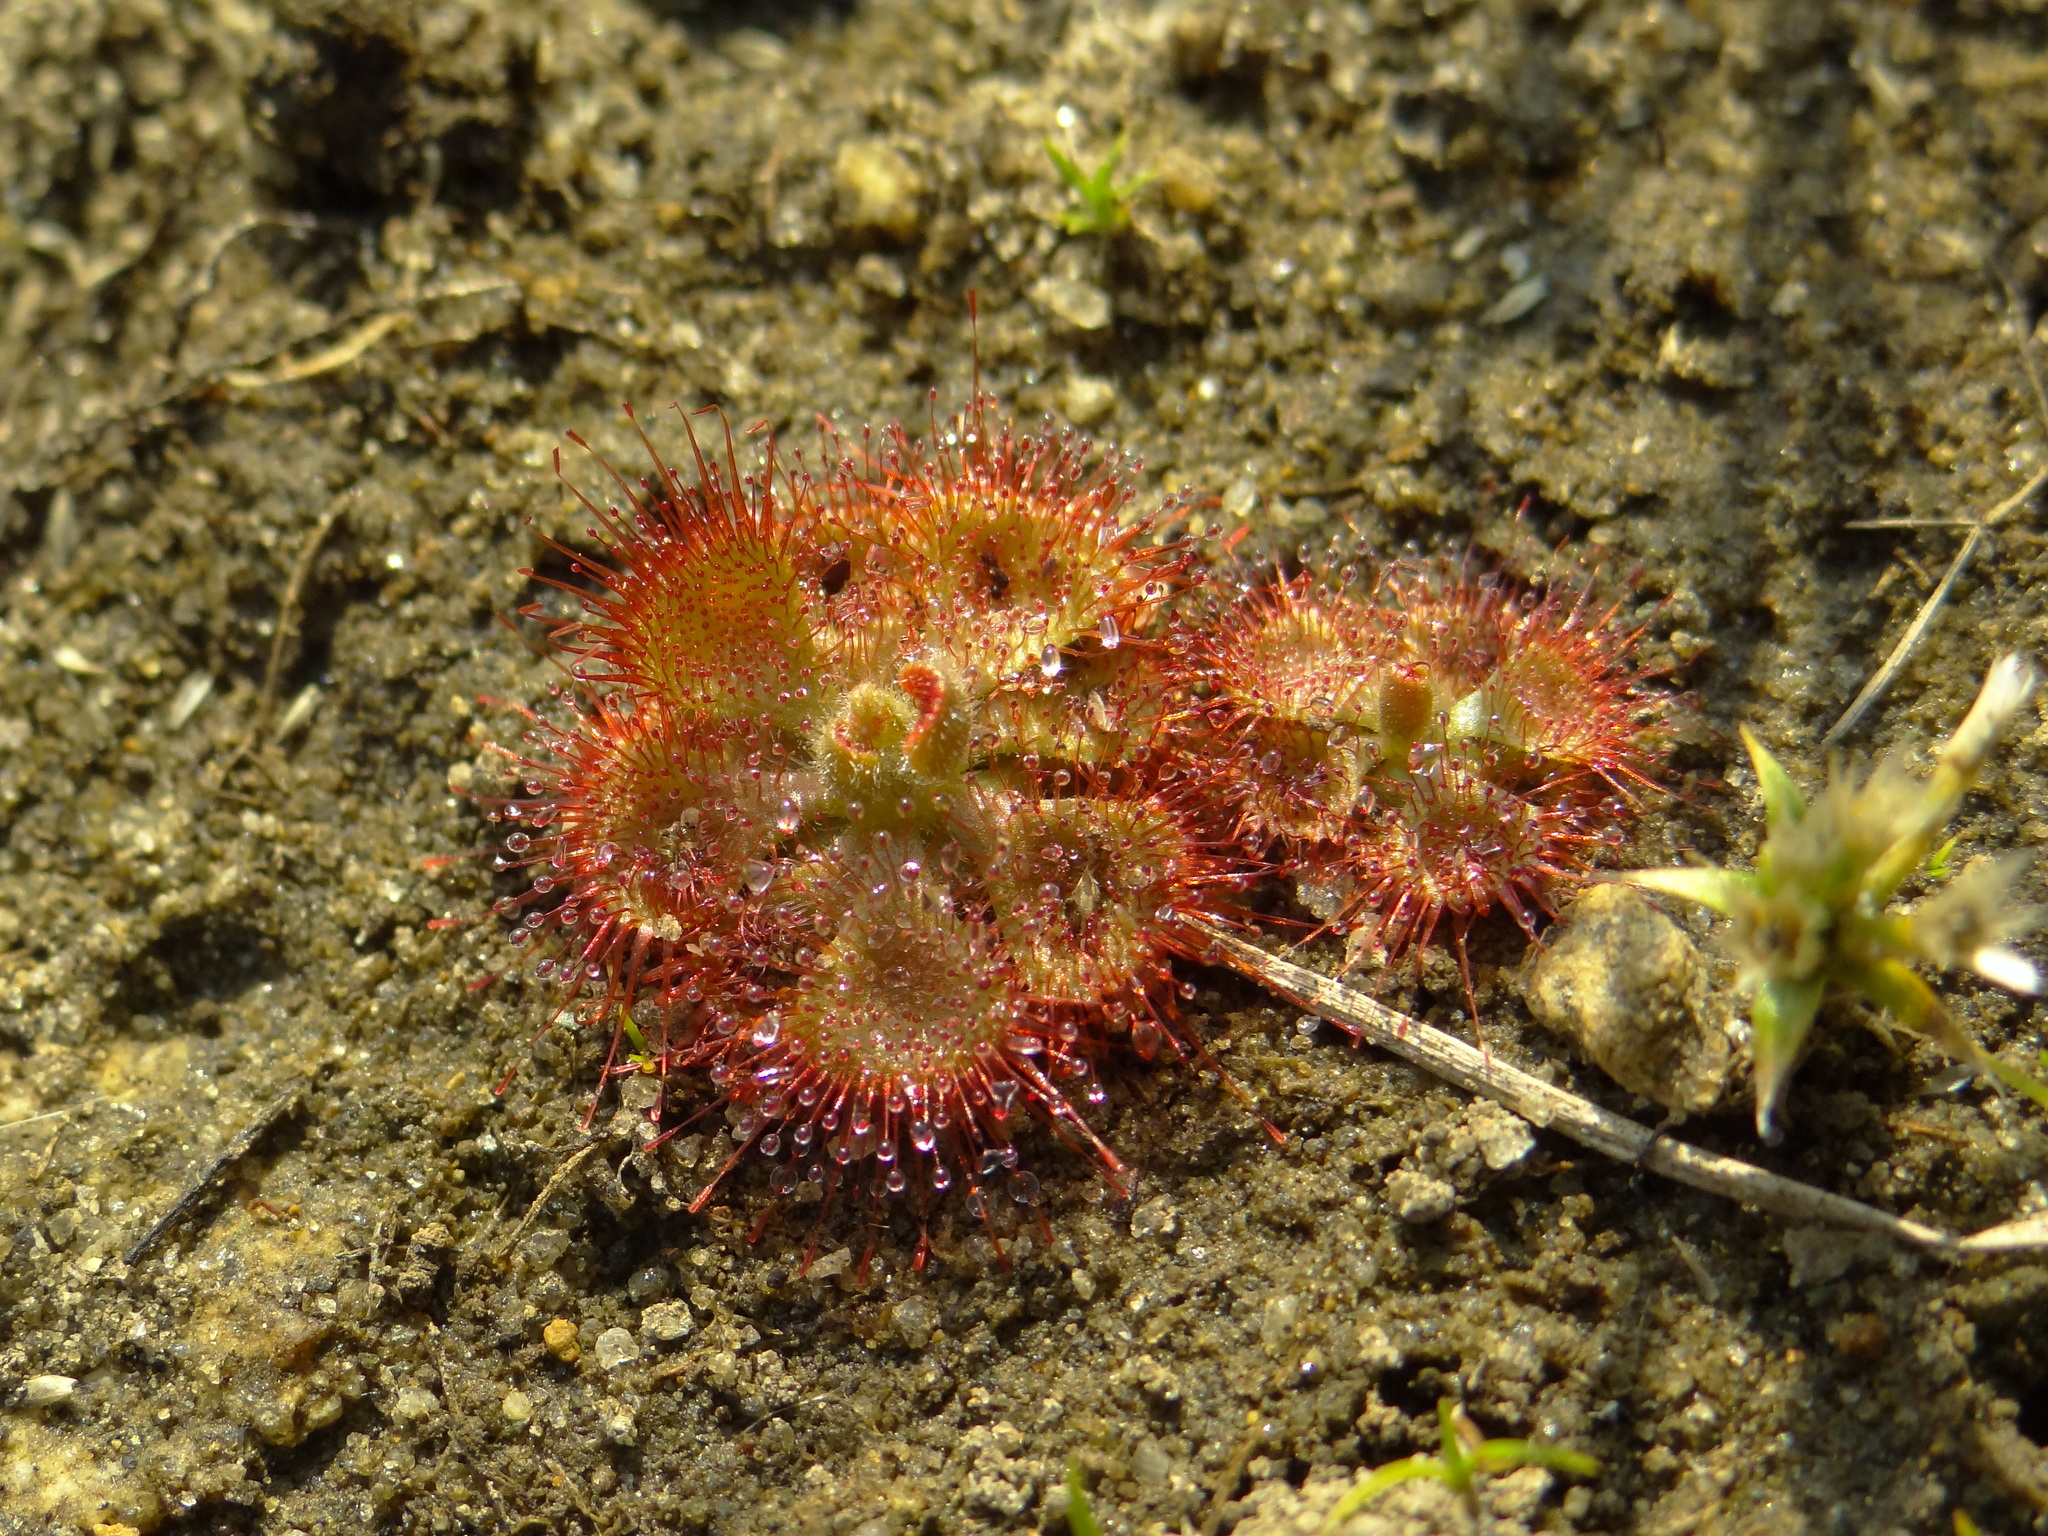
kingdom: Plantae
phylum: Tracheophyta
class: Magnoliopsida
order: Caryophyllales
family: Droseraceae
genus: Drosera
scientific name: Drosera spatulata
